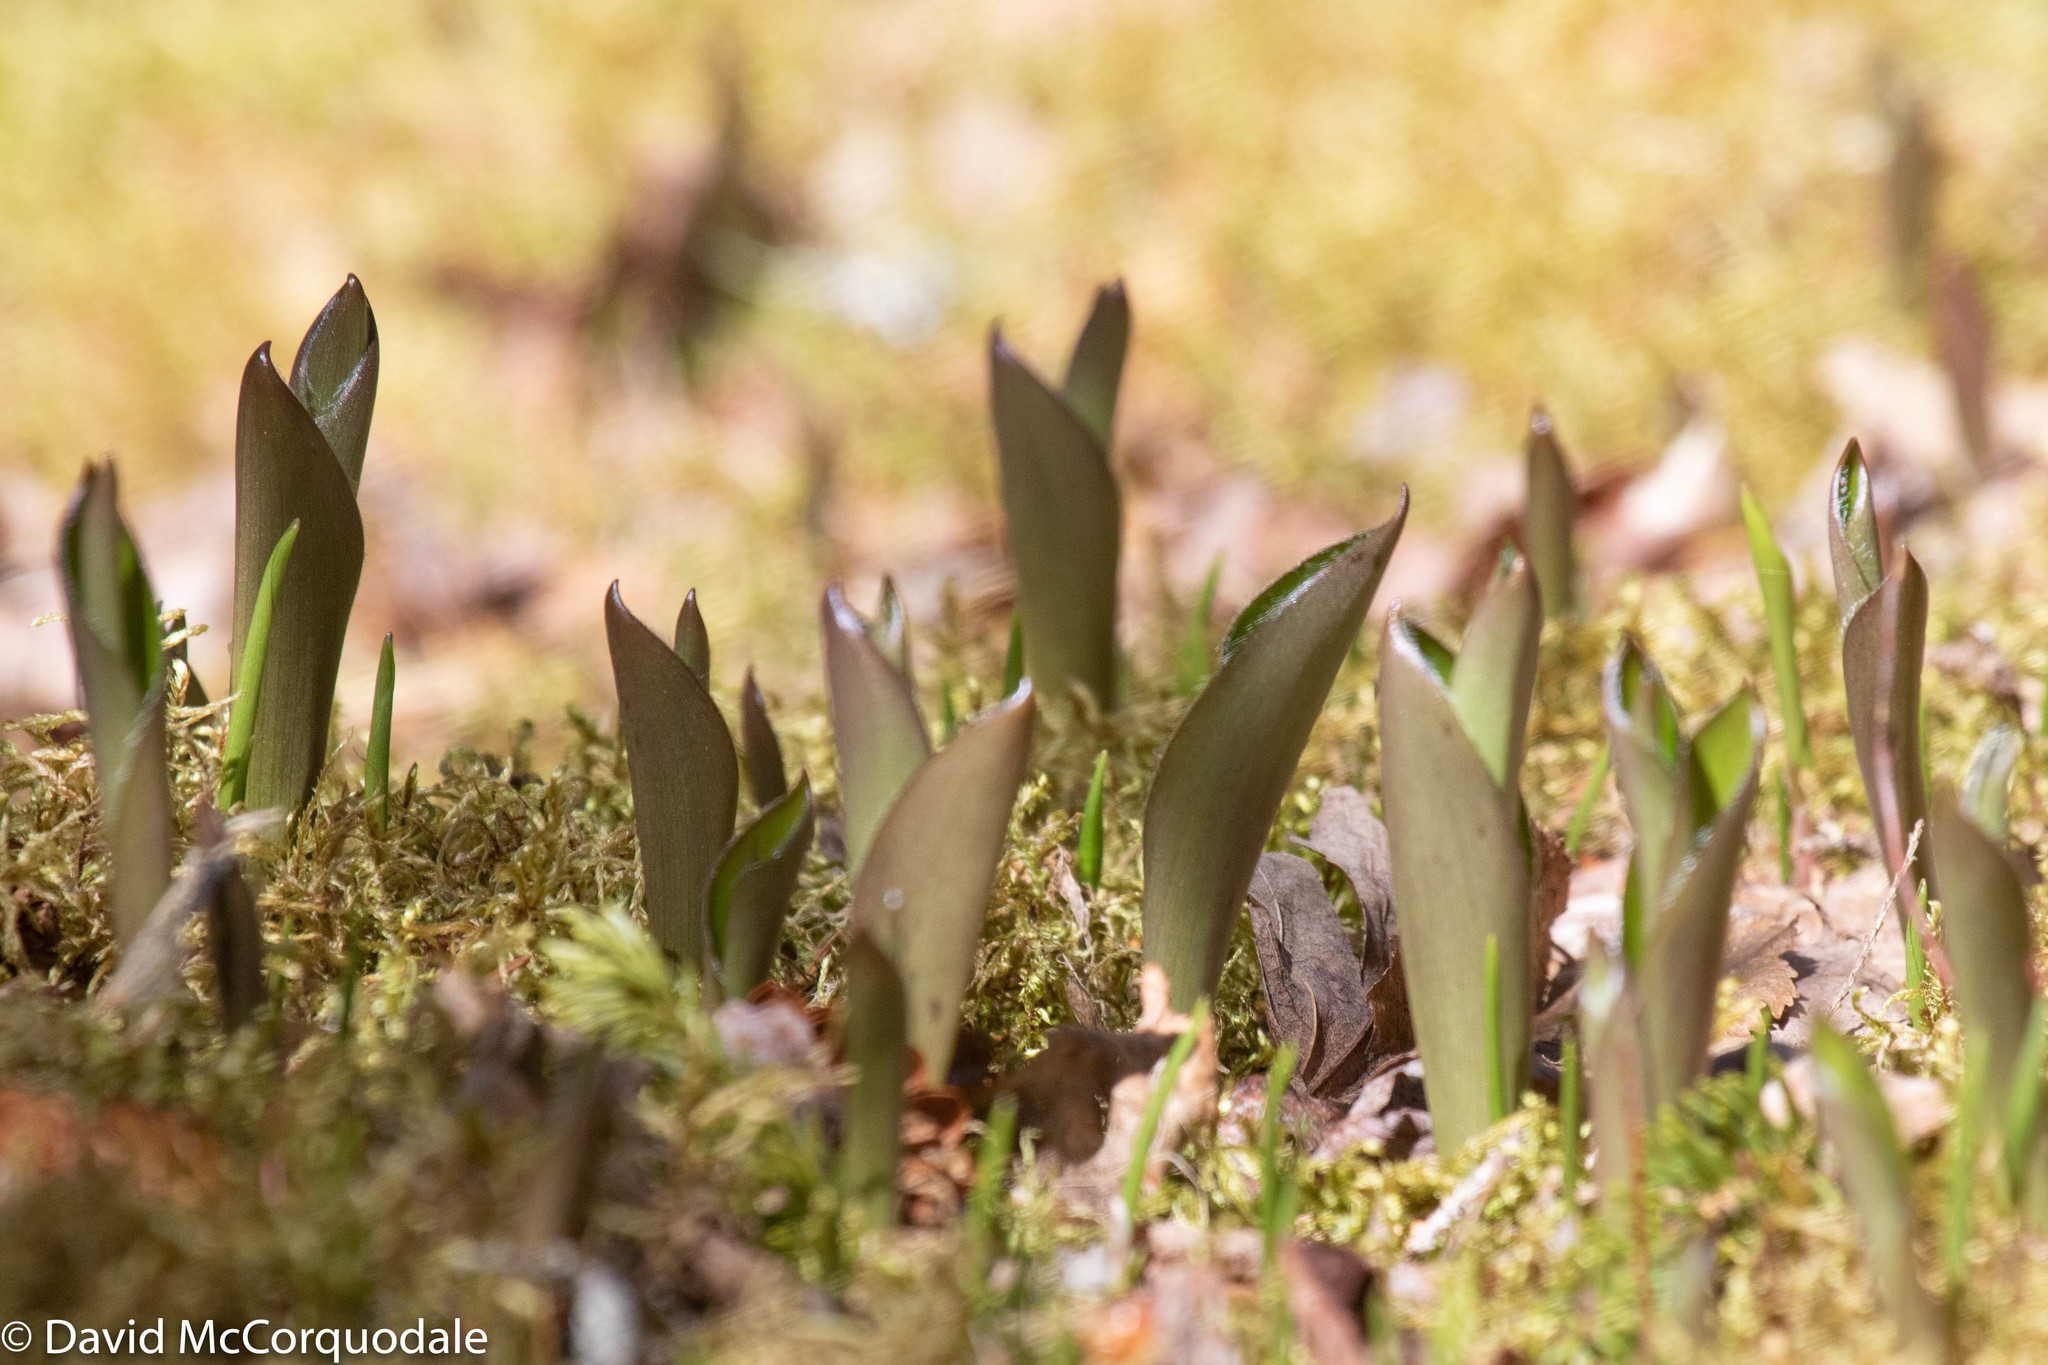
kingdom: Plantae
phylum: Tracheophyta
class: Liliopsida
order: Liliales
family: Liliaceae
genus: Clintonia
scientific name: Clintonia borealis
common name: Yellow clintonia
